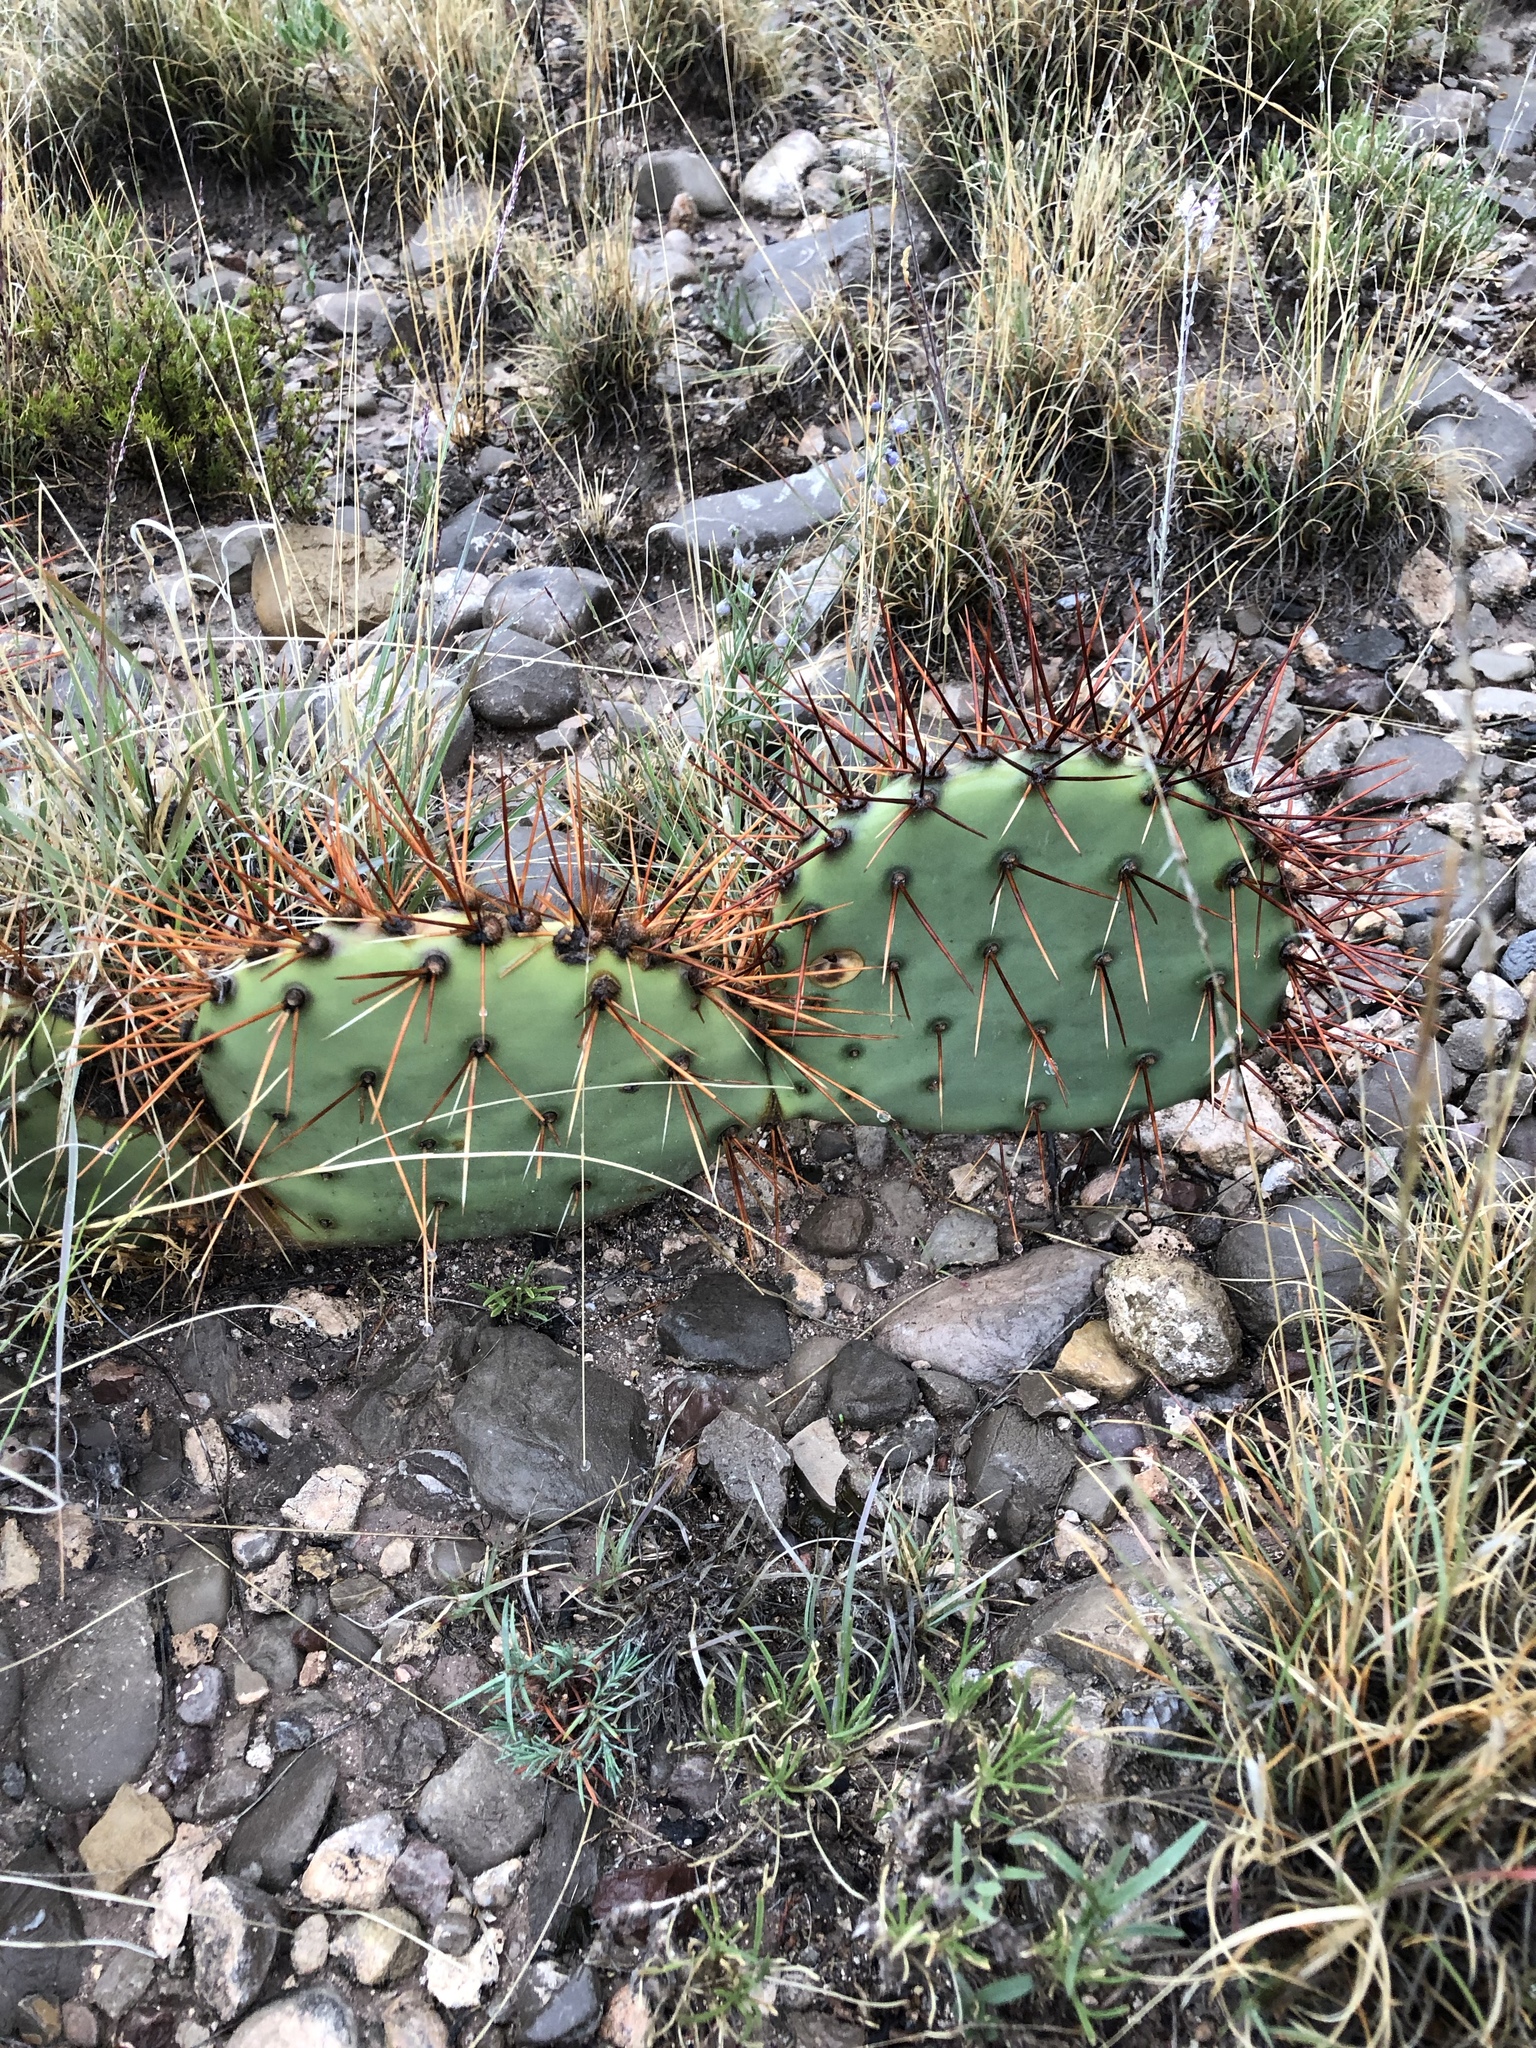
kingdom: Plantae
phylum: Tracheophyta
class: Magnoliopsida
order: Caryophyllales
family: Cactaceae
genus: Opuntia
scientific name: Opuntia macrocentra
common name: Purple prickly-pear
